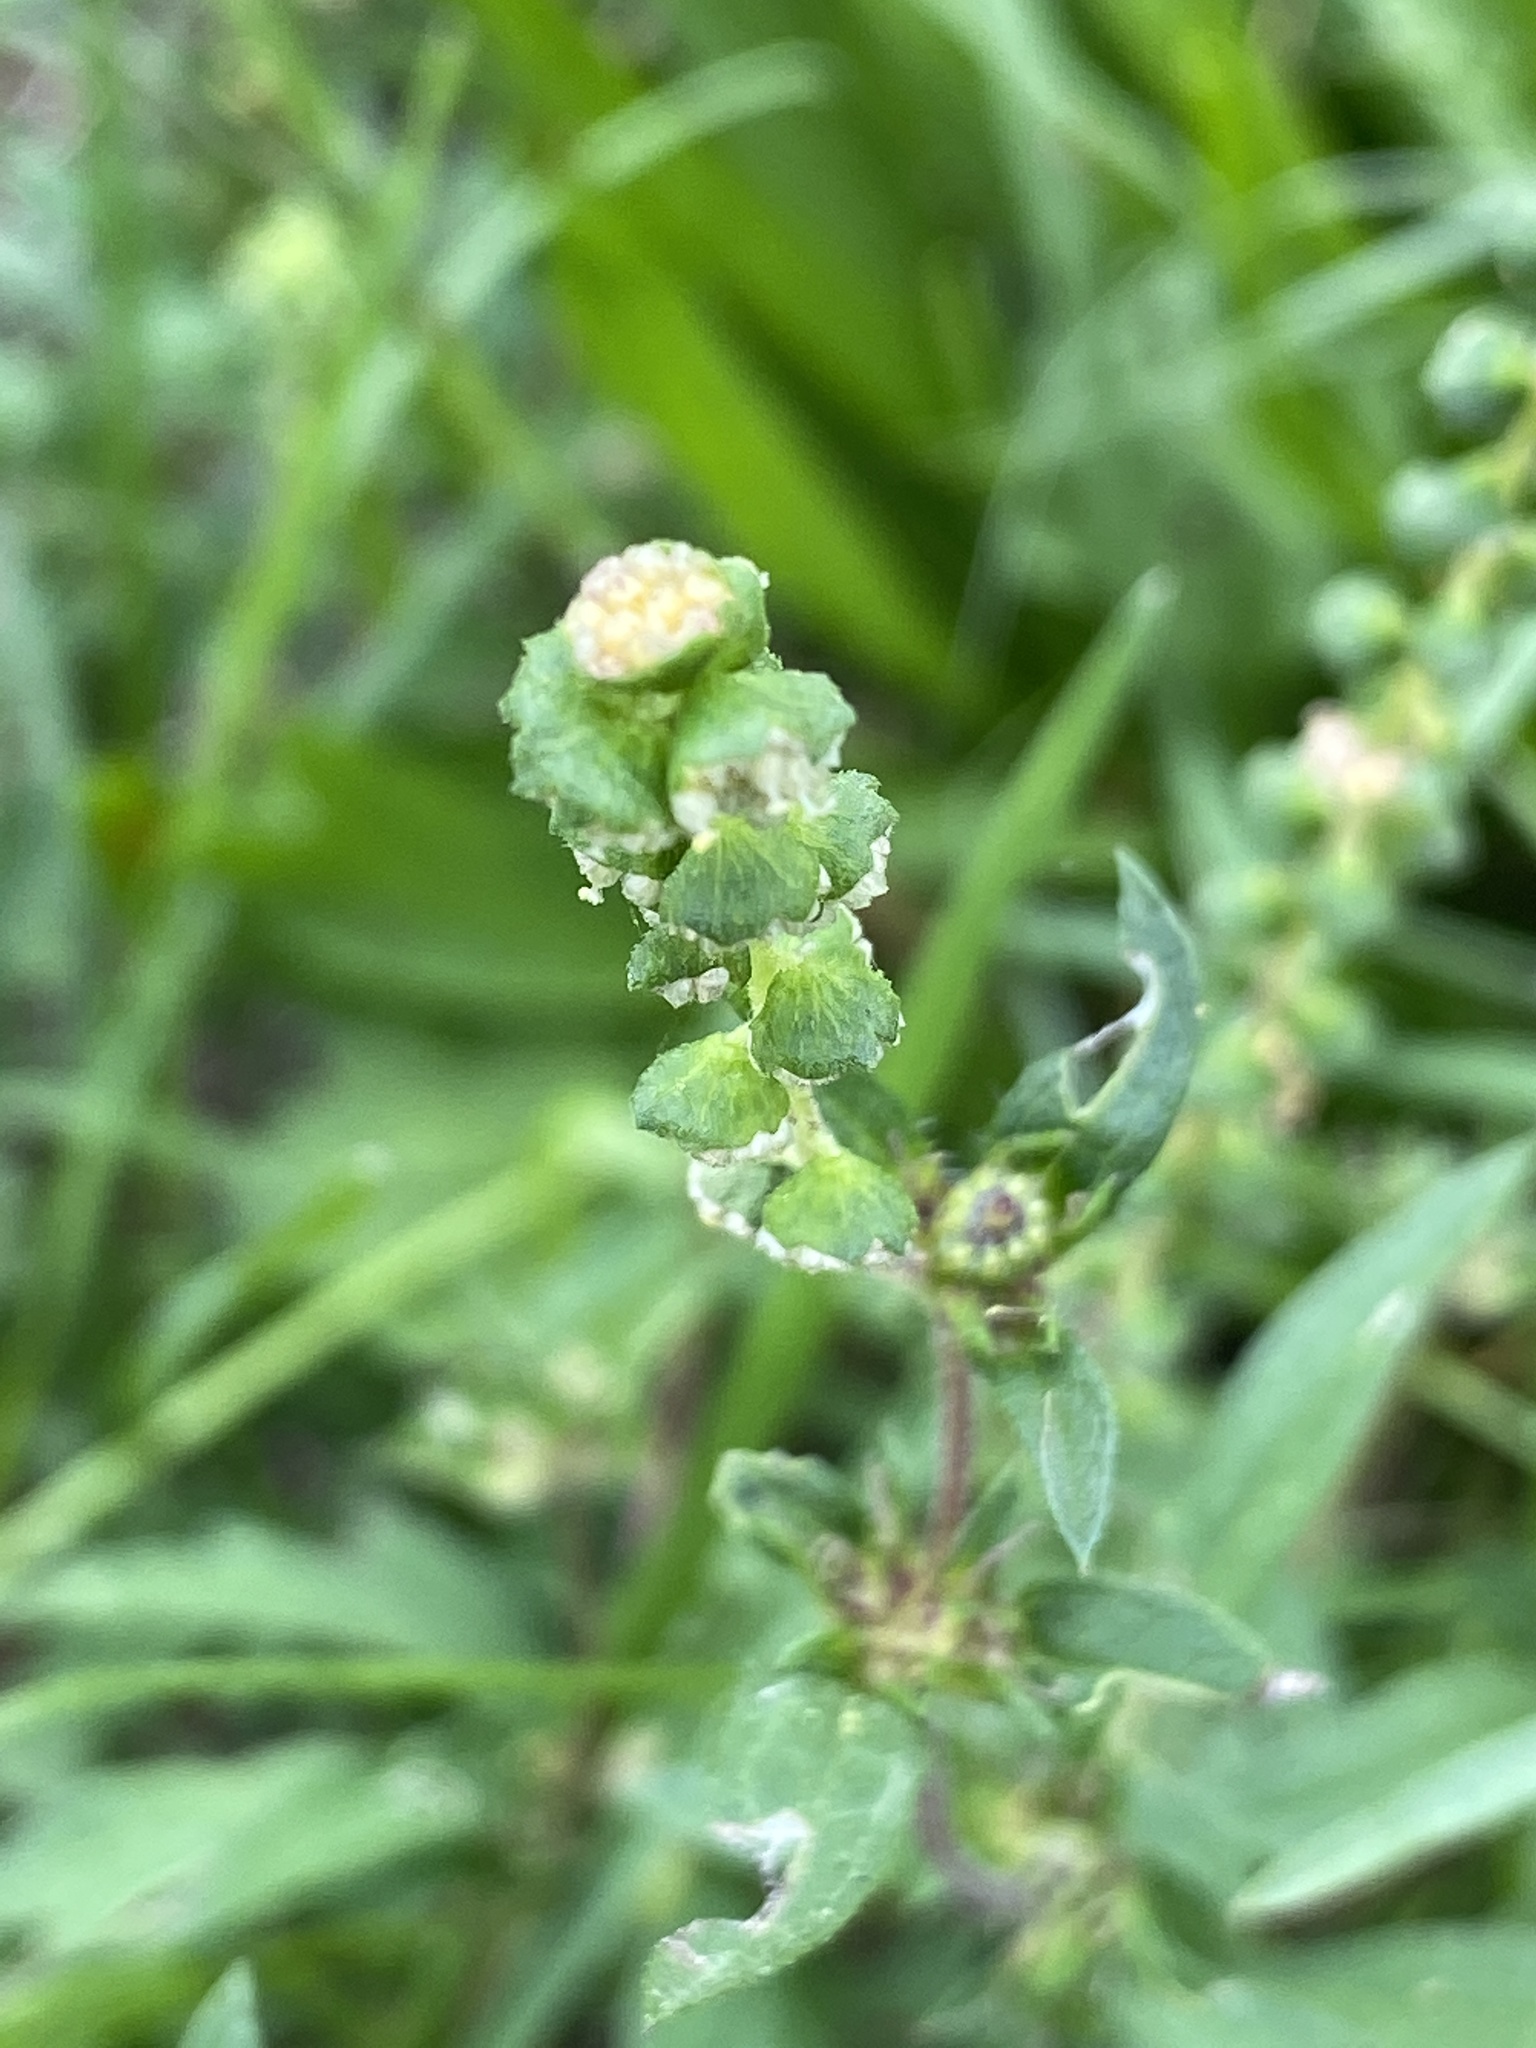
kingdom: Plantae
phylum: Tracheophyta
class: Magnoliopsida
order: Asterales
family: Asteraceae
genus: Ambrosia
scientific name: Ambrosia artemisiifolia
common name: Annual ragweed
